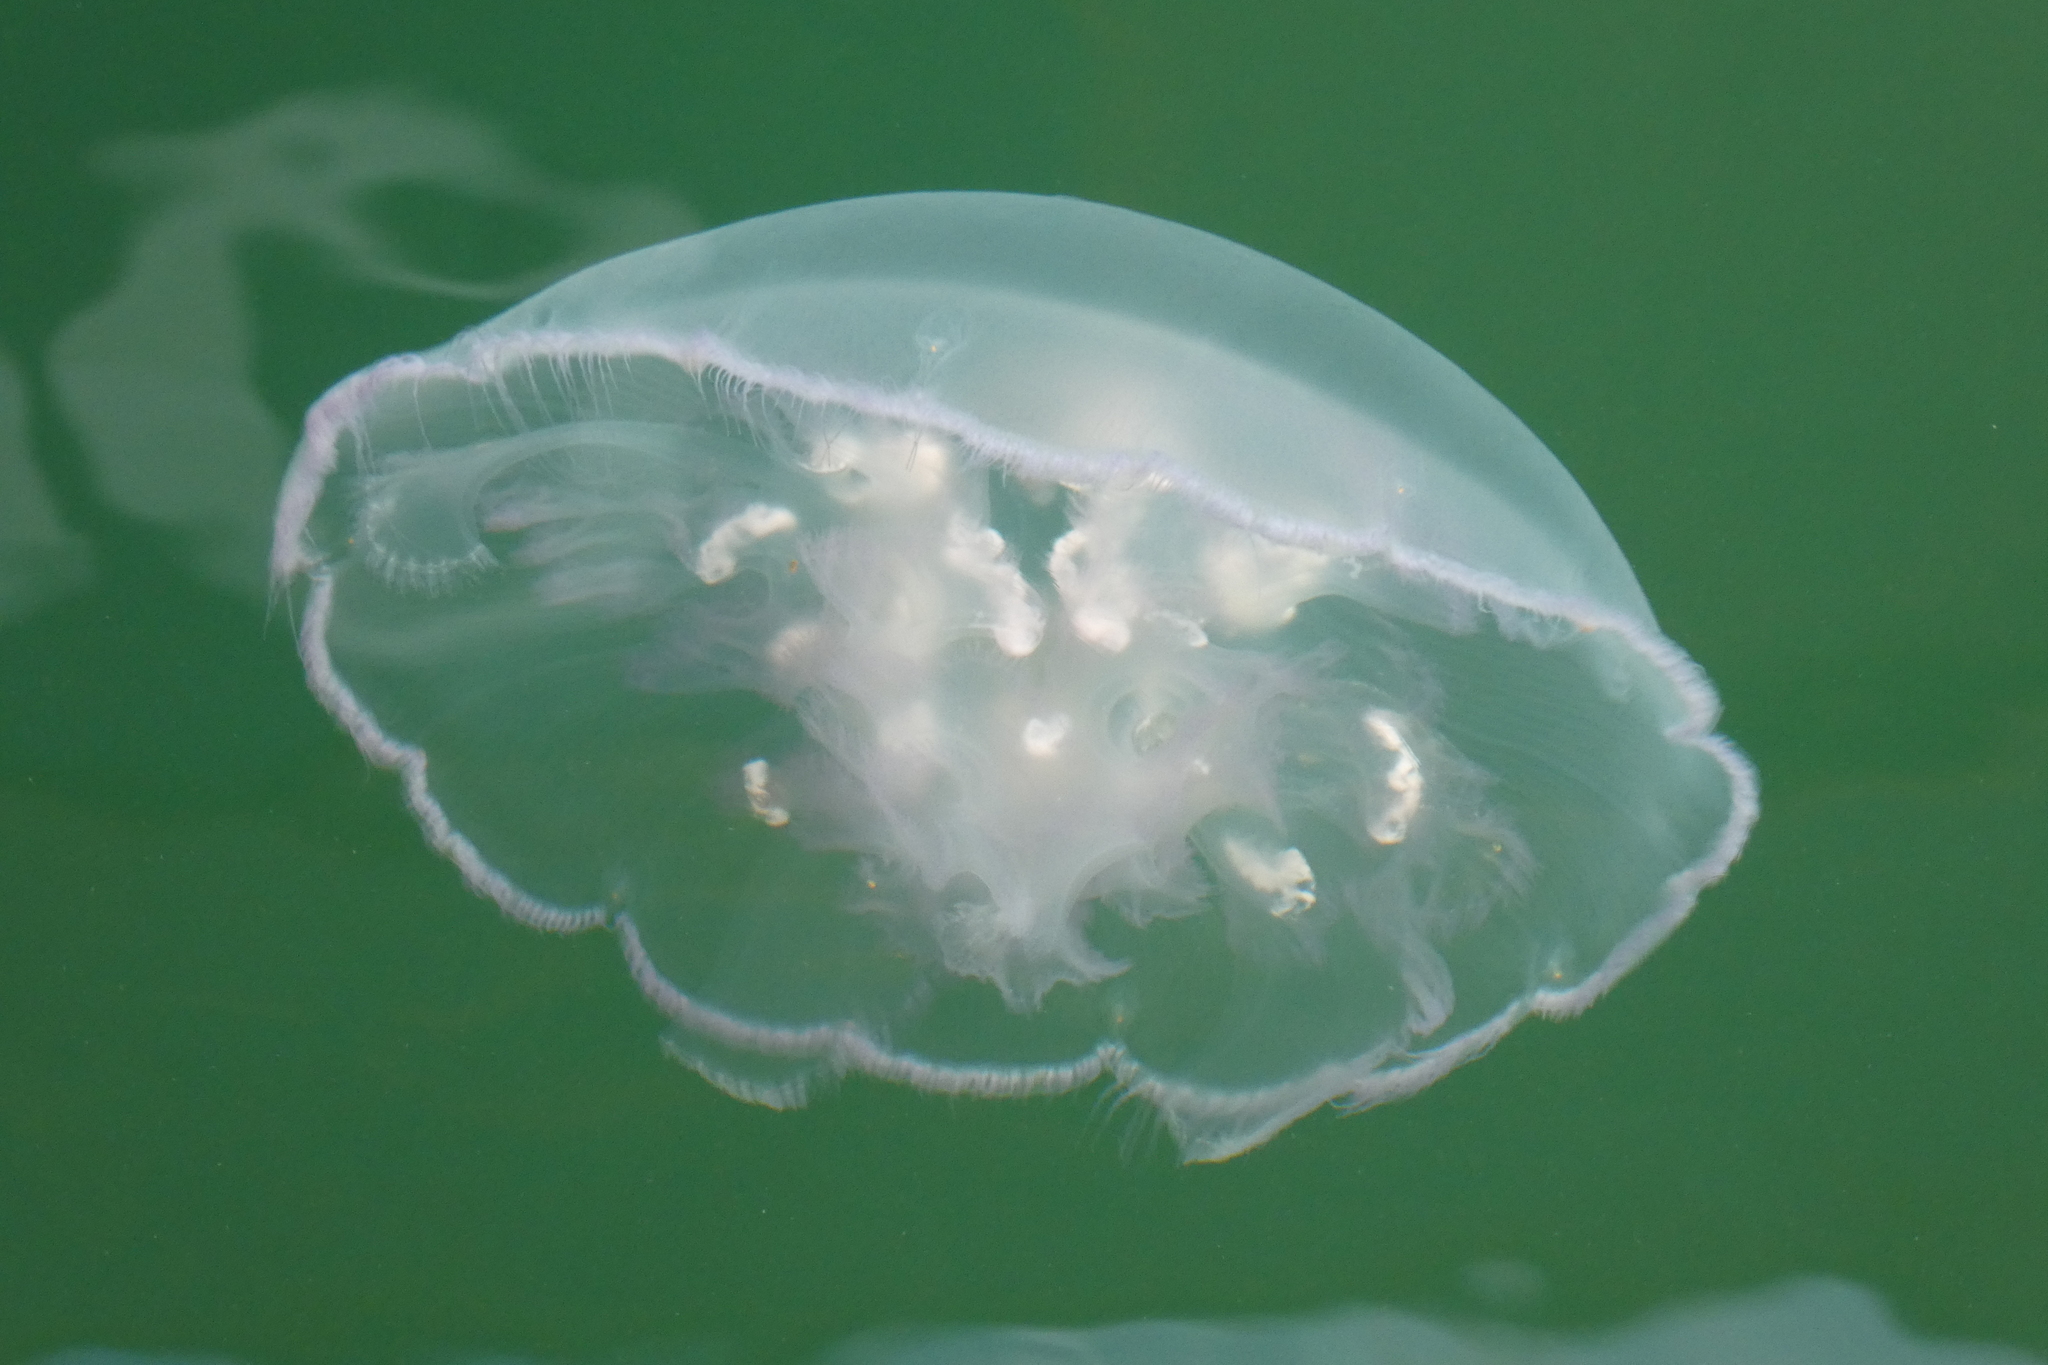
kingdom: Animalia
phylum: Cnidaria
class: Scyphozoa
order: Semaeostomeae
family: Ulmaridae
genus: Aurelia
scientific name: Aurelia labiata
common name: Pacific moon jelly
